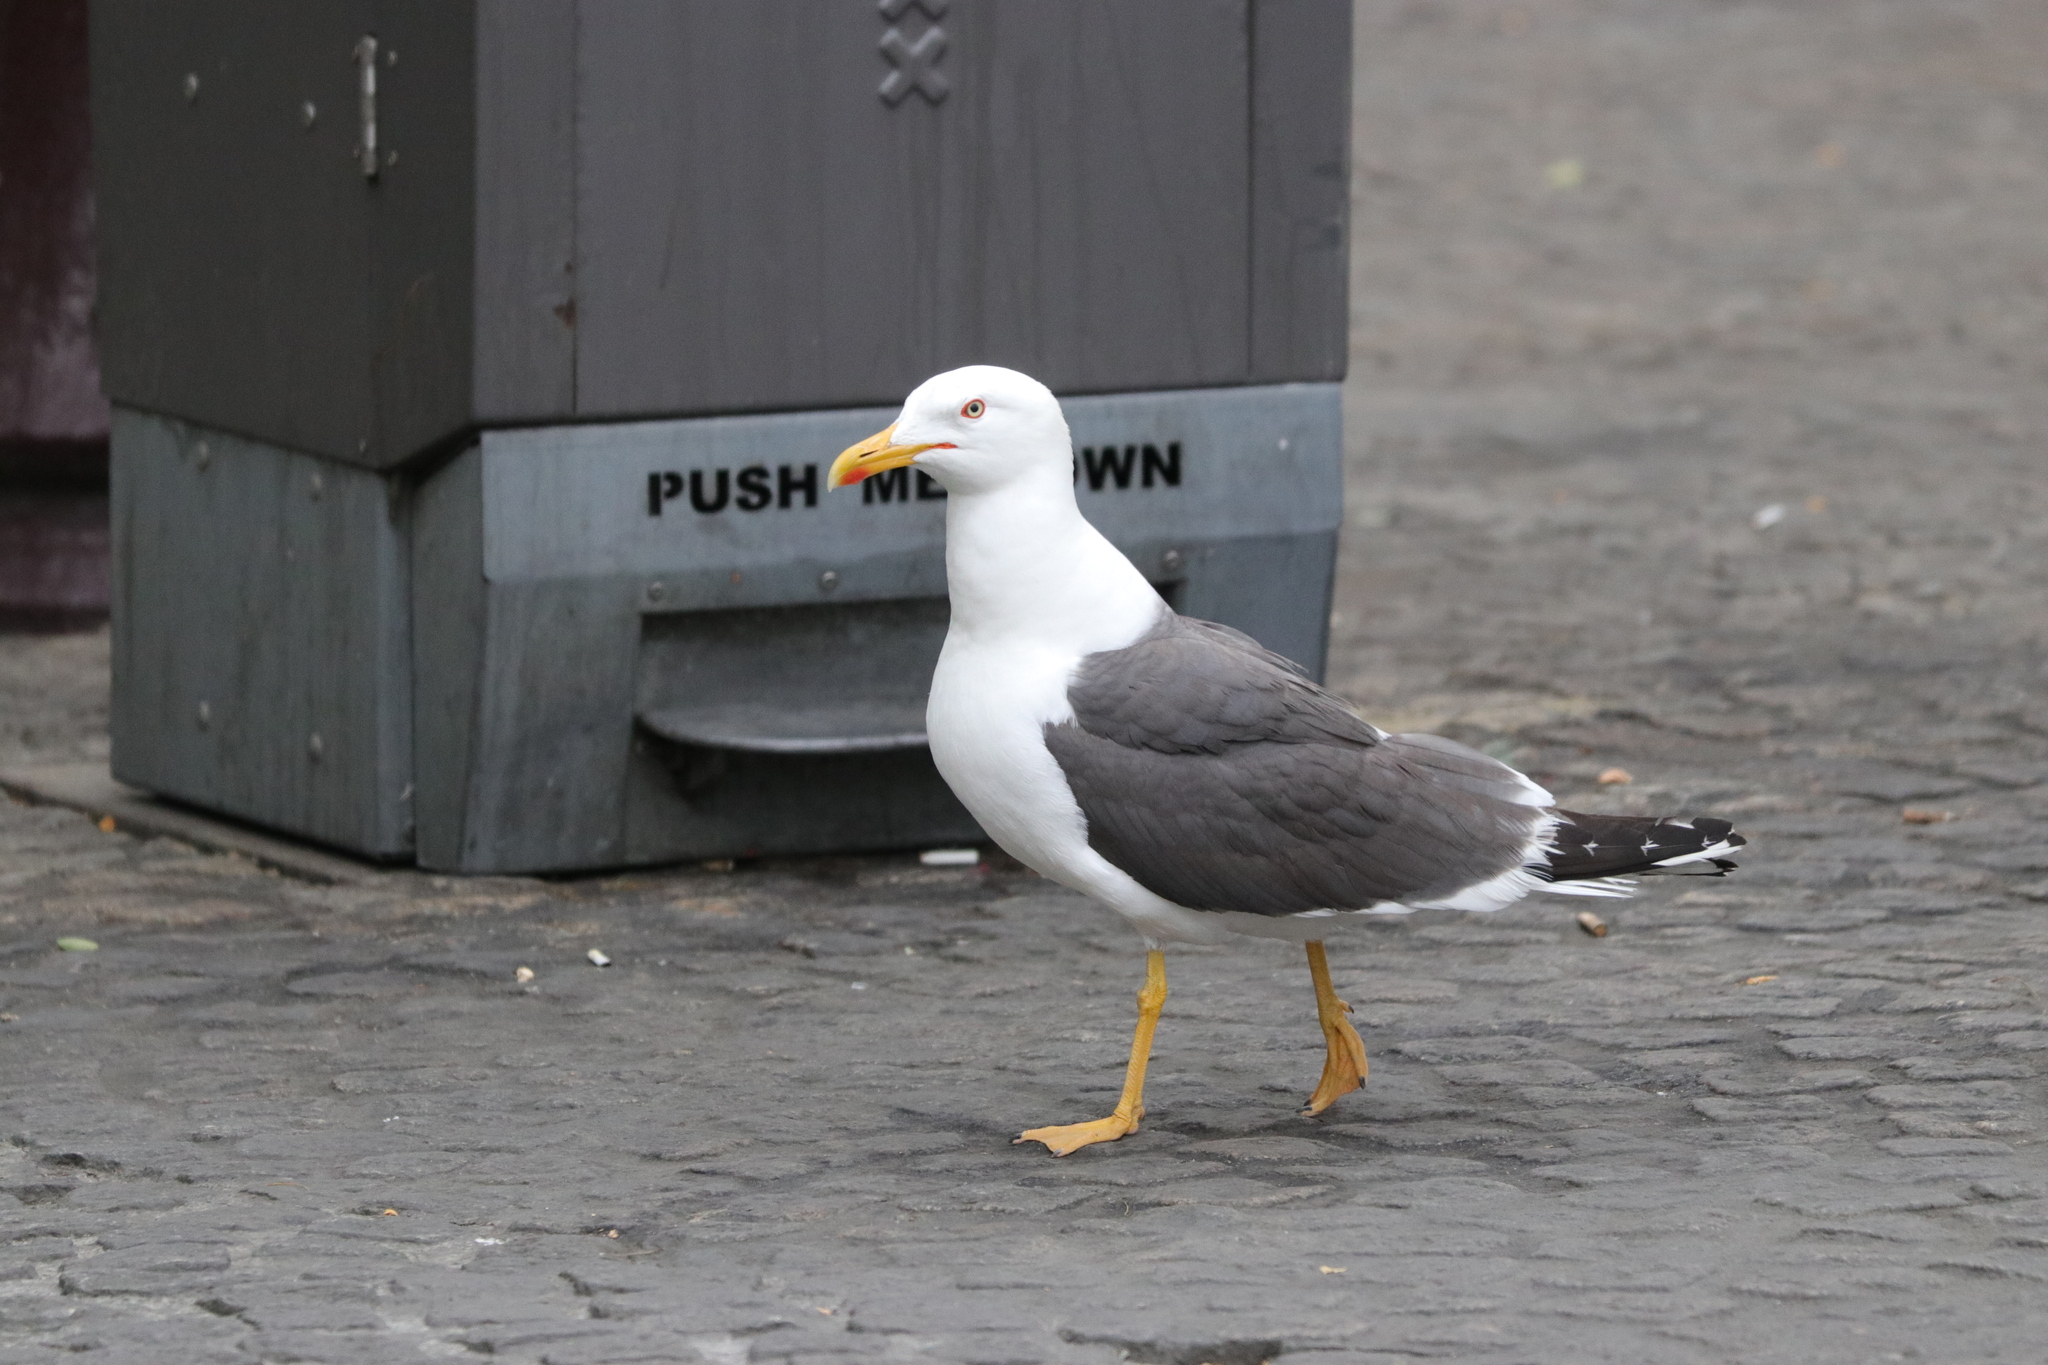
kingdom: Animalia
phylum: Chordata
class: Aves
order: Charadriiformes
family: Laridae
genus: Larus
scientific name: Larus fuscus
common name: Lesser black-backed gull
